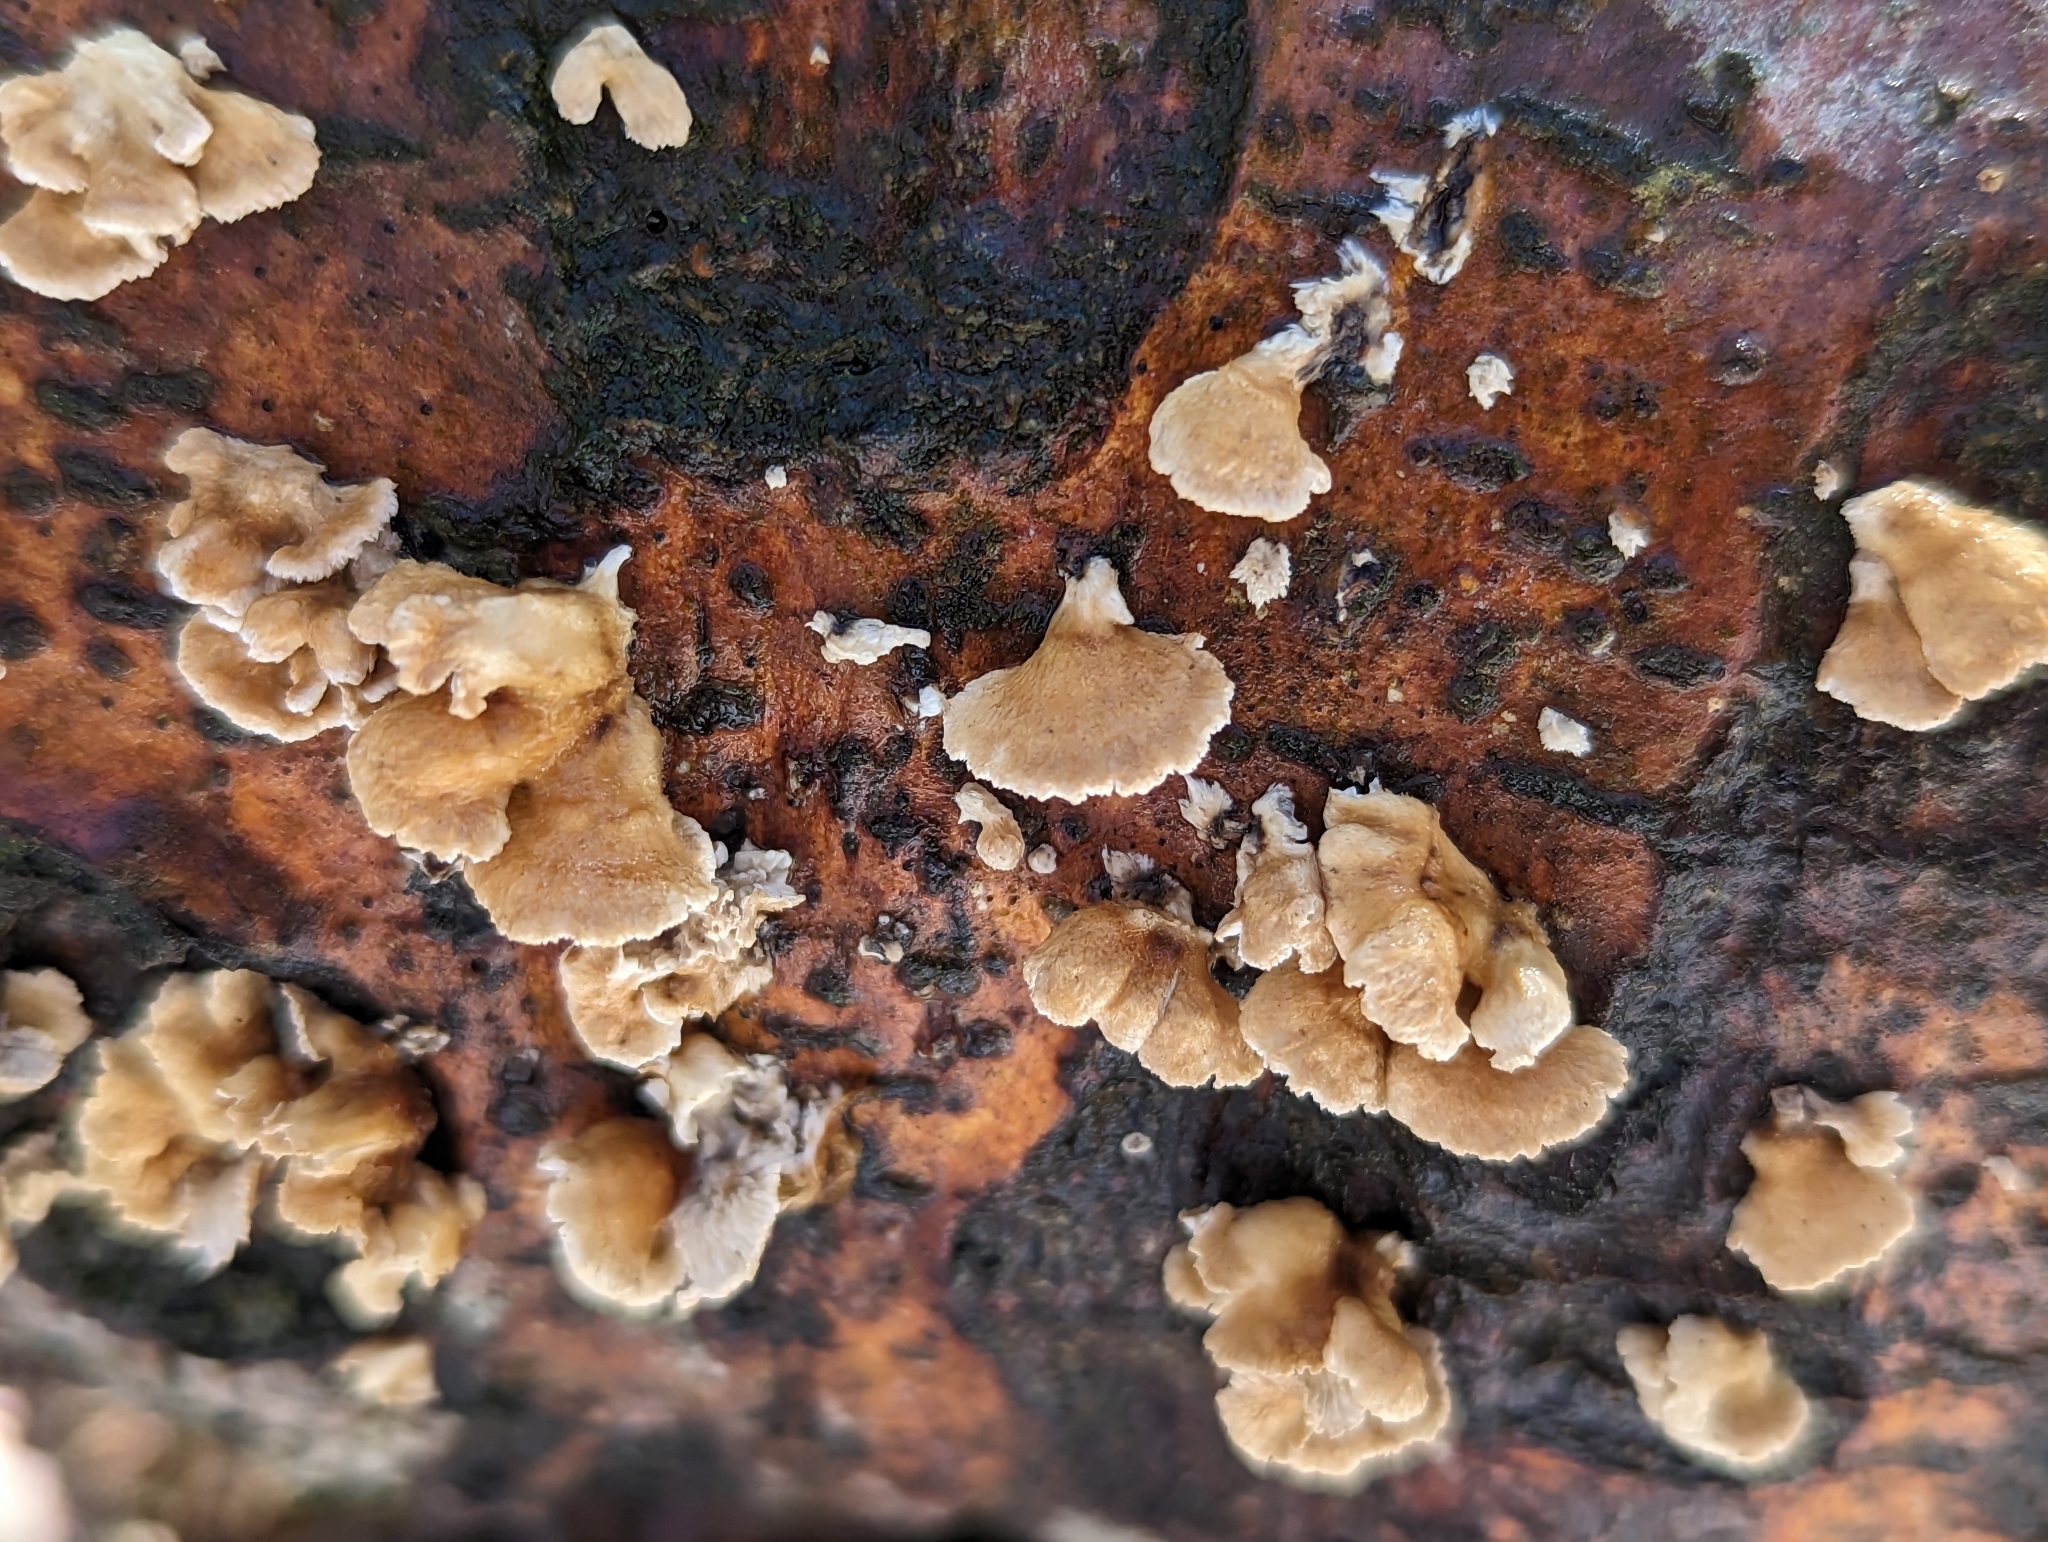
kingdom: Fungi
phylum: Basidiomycota
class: Agaricomycetes
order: Amylocorticiales
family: Amylocorticiaceae
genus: Plicaturopsis
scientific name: Plicaturopsis crispa
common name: Crimped gill
